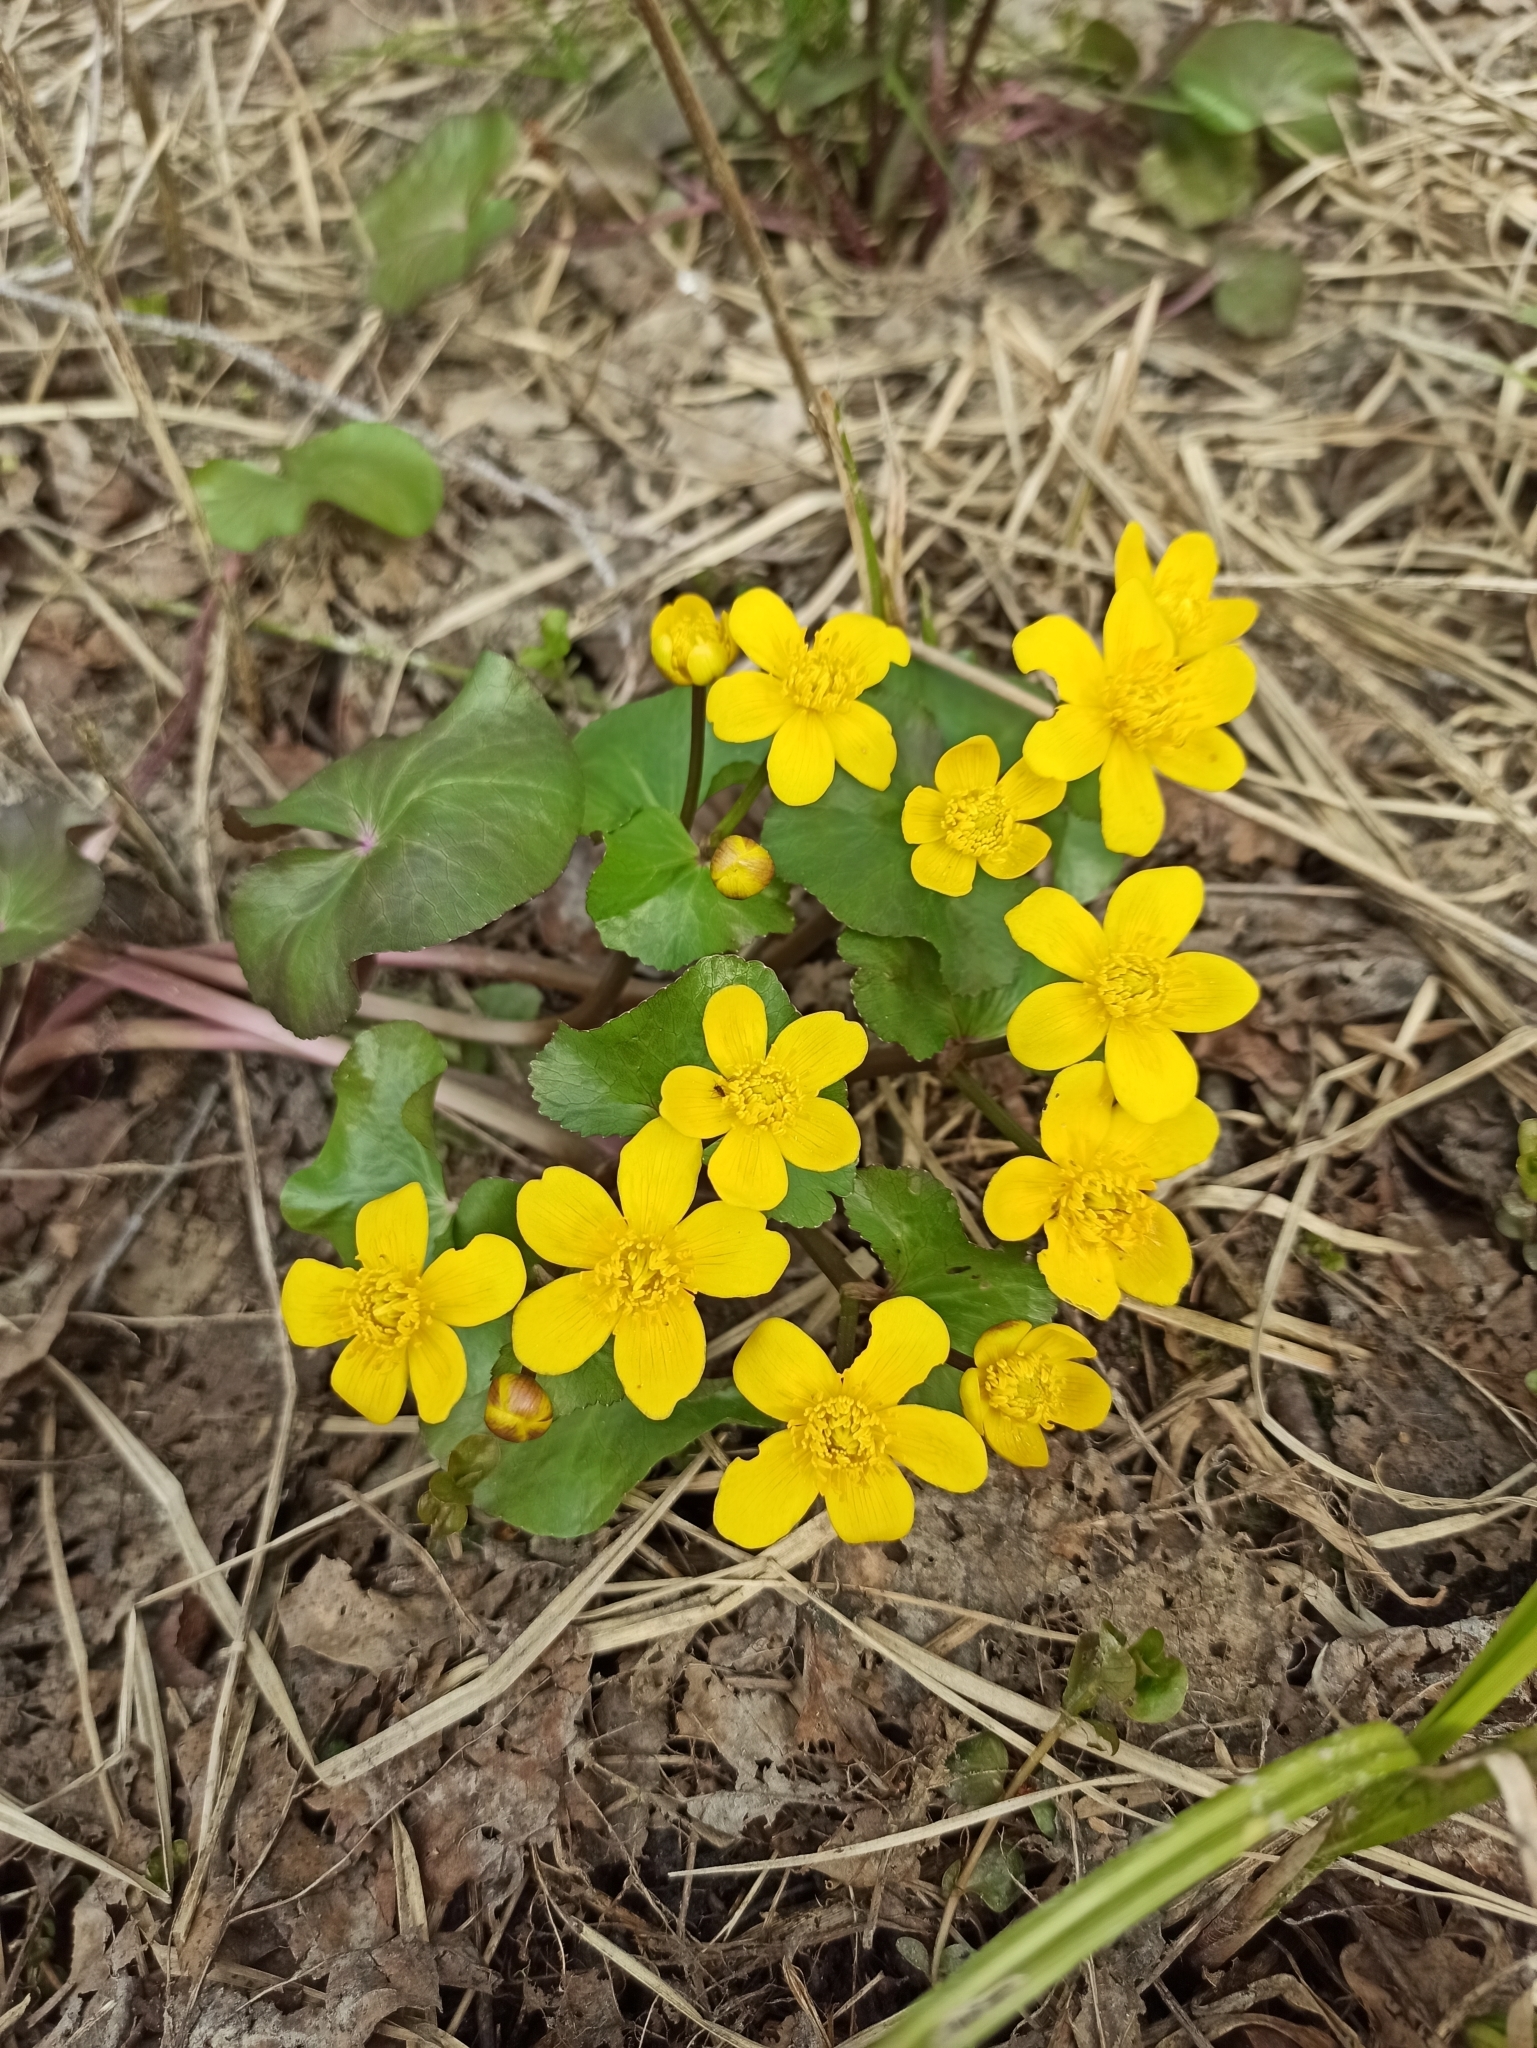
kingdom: Plantae
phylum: Tracheophyta
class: Magnoliopsida
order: Ranunculales
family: Ranunculaceae
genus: Caltha
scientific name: Caltha palustris
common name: Marsh marigold
